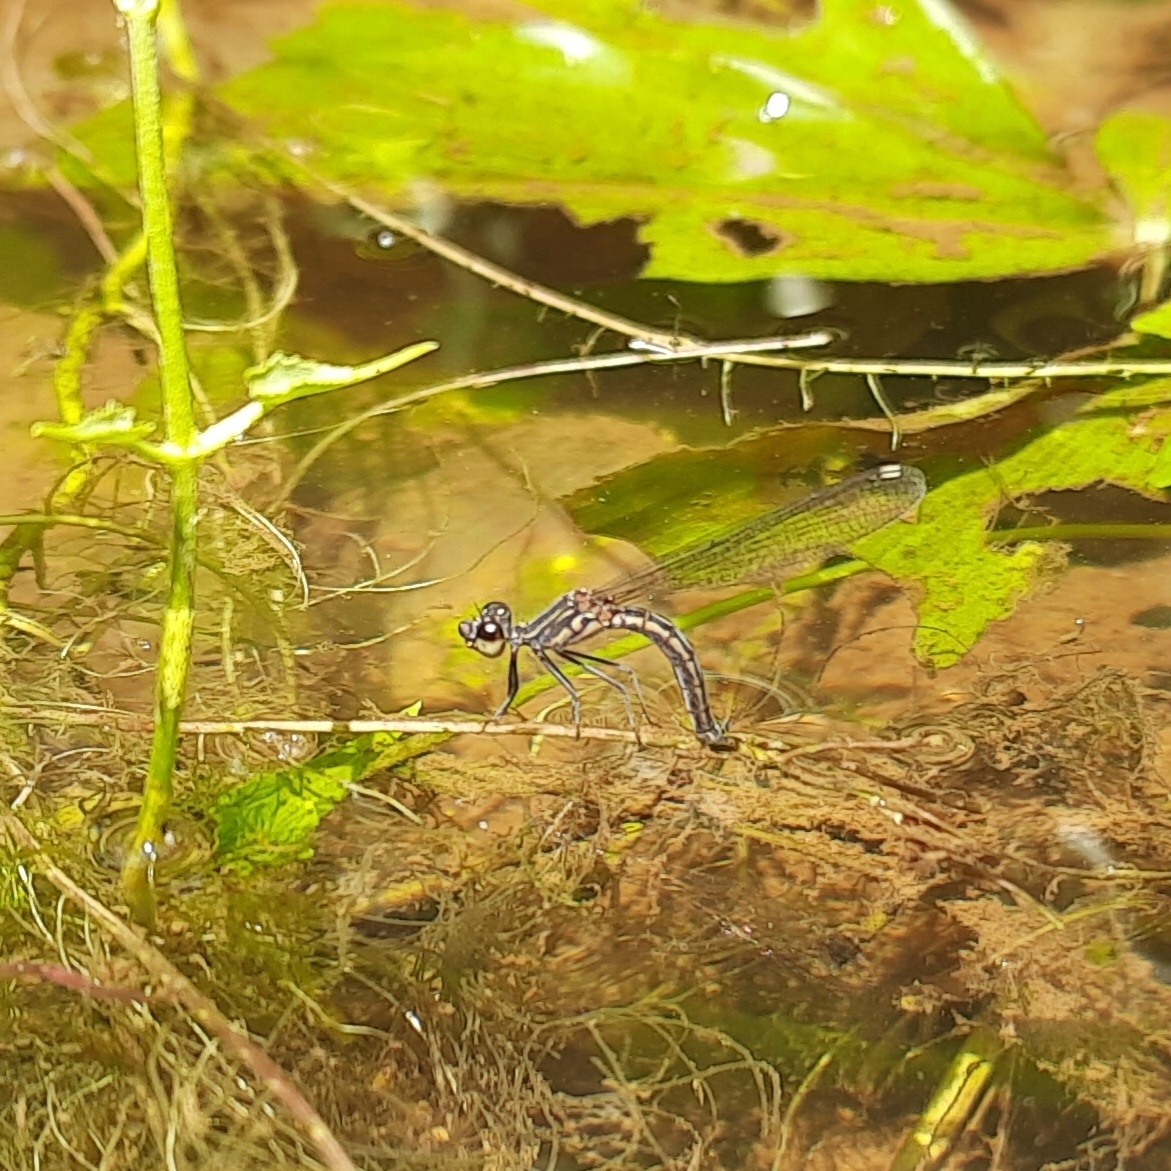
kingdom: Animalia
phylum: Arthropoda
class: Insecta
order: Odonata
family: Chlorocyphidae
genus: Libellago
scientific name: Libellago indica
